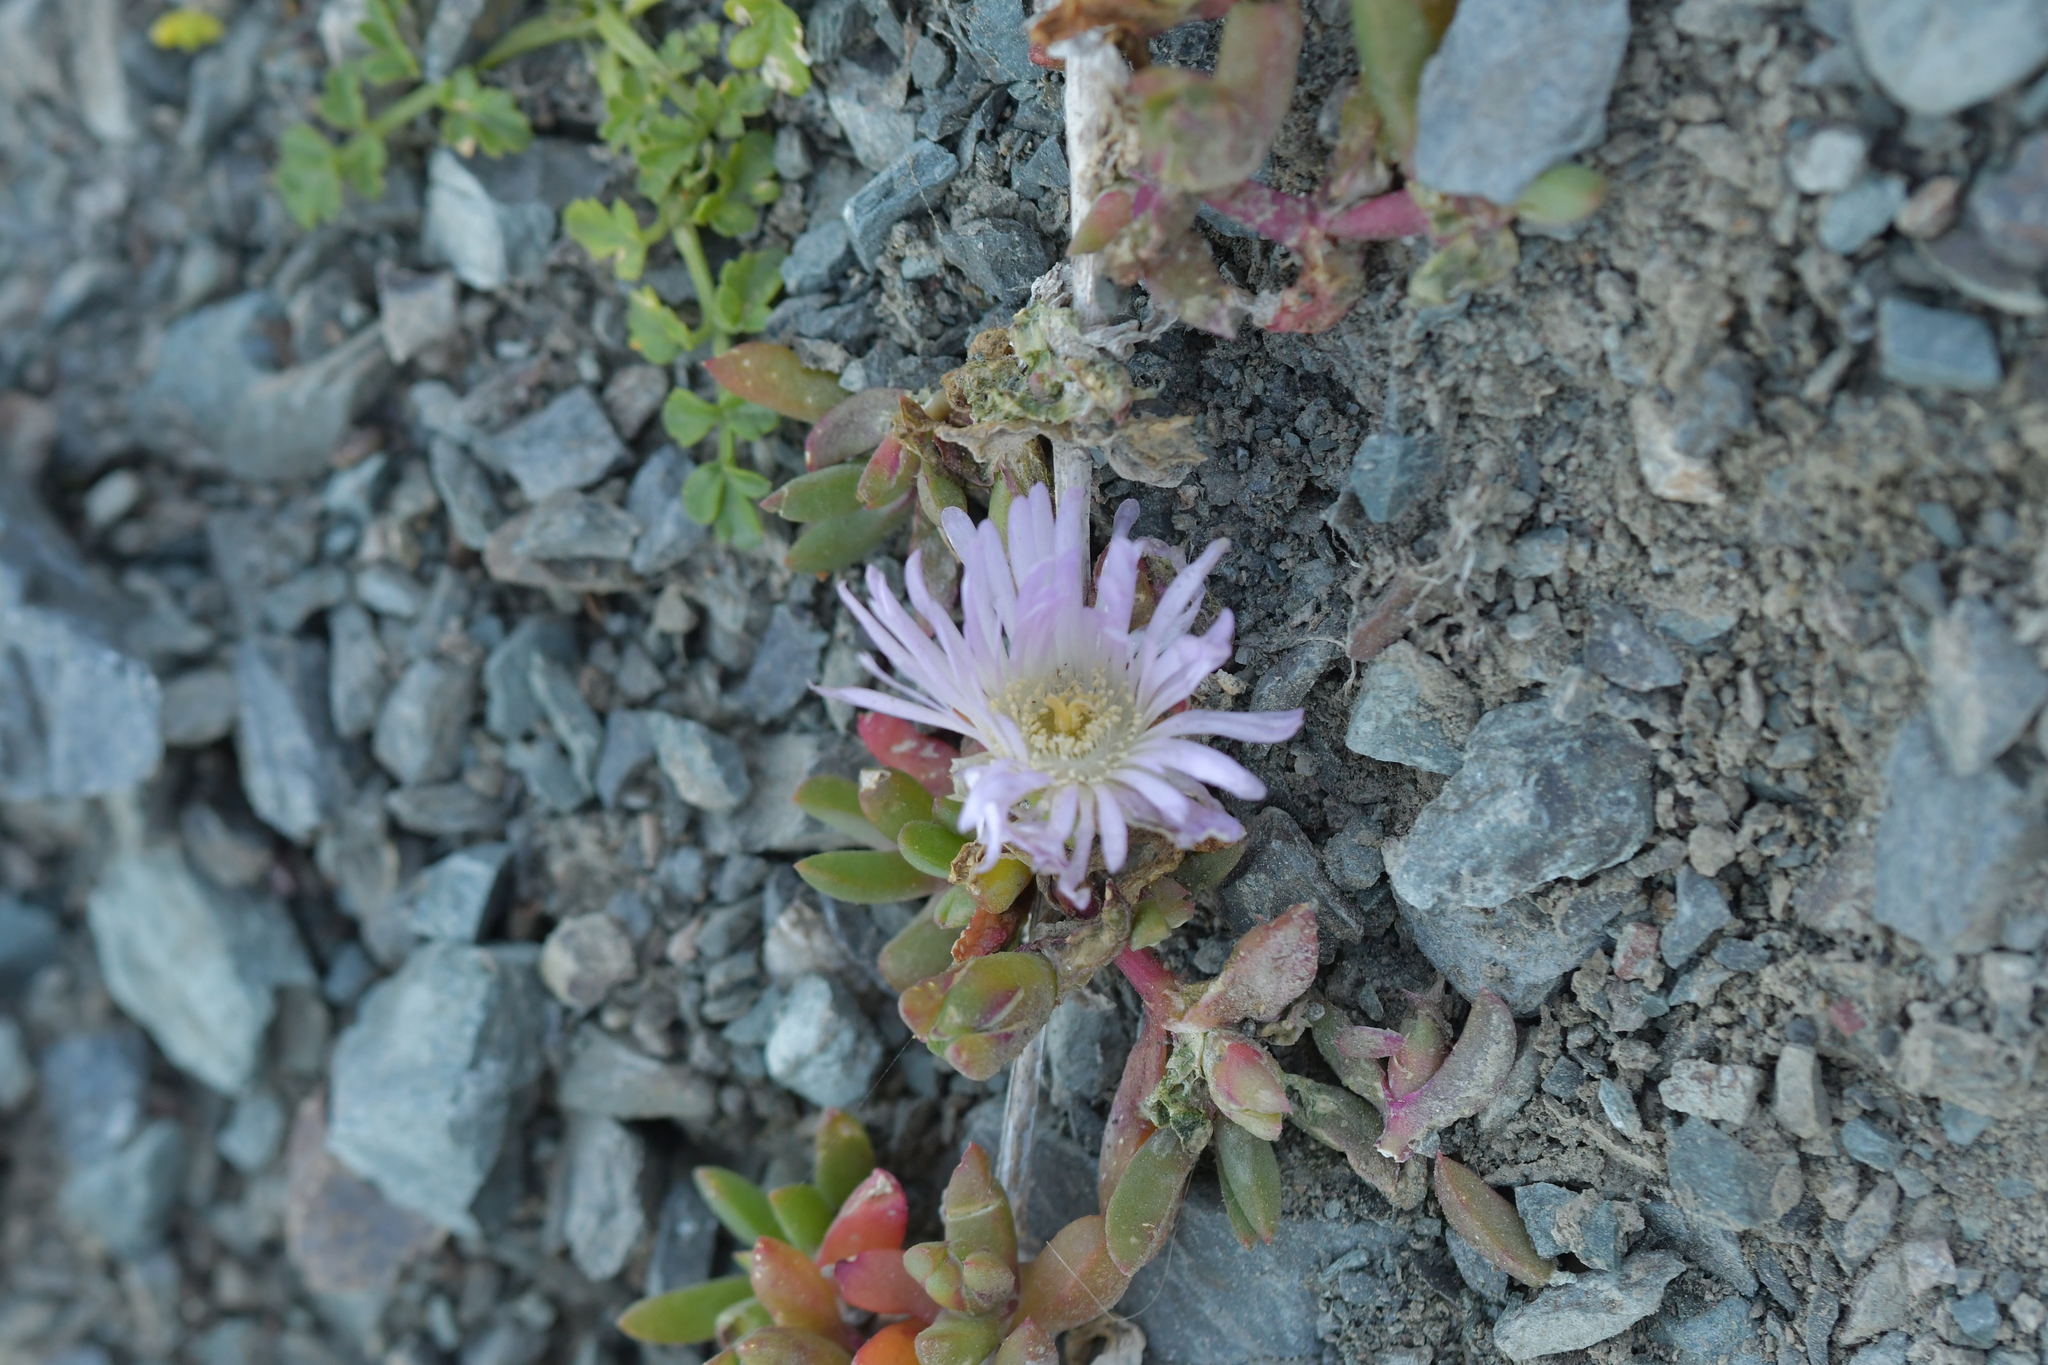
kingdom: Plantae
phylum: Tracheophyta
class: Magnoliopsida
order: Caryophyllales
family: Aizoaceae
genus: Disphyma
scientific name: Disphyma australe
